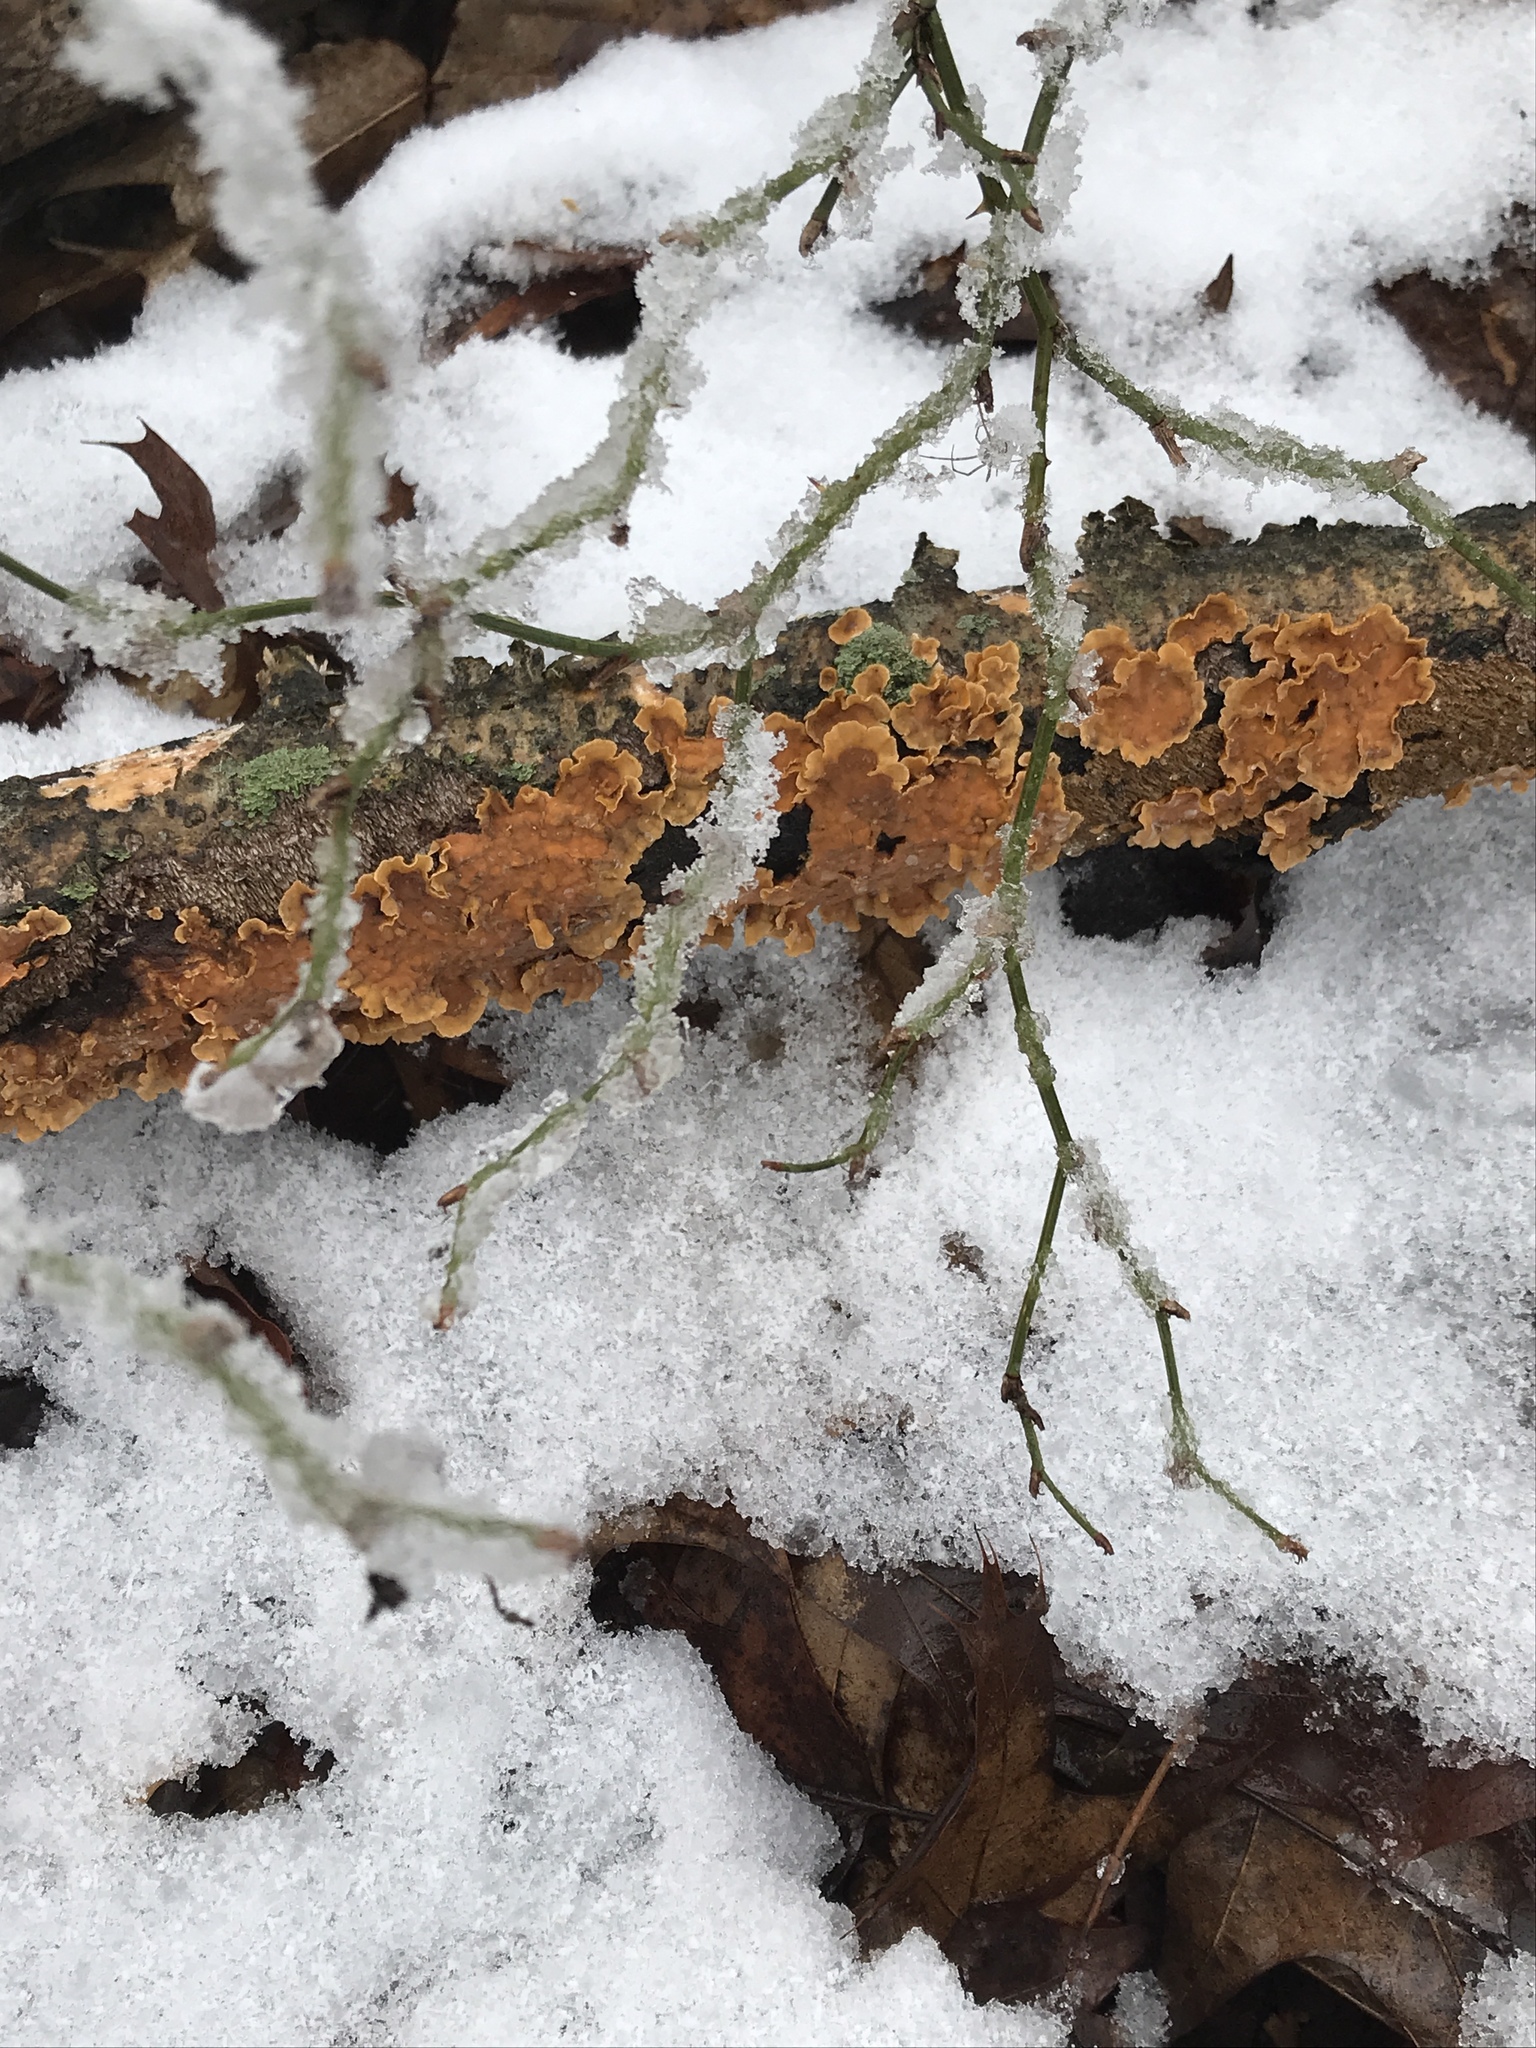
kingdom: Fungi
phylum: Basidiomycota
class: Agaricomycetes
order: Russulales
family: Stereaceae
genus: Stereum
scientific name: Stereum complicatum
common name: Crowded parchment
